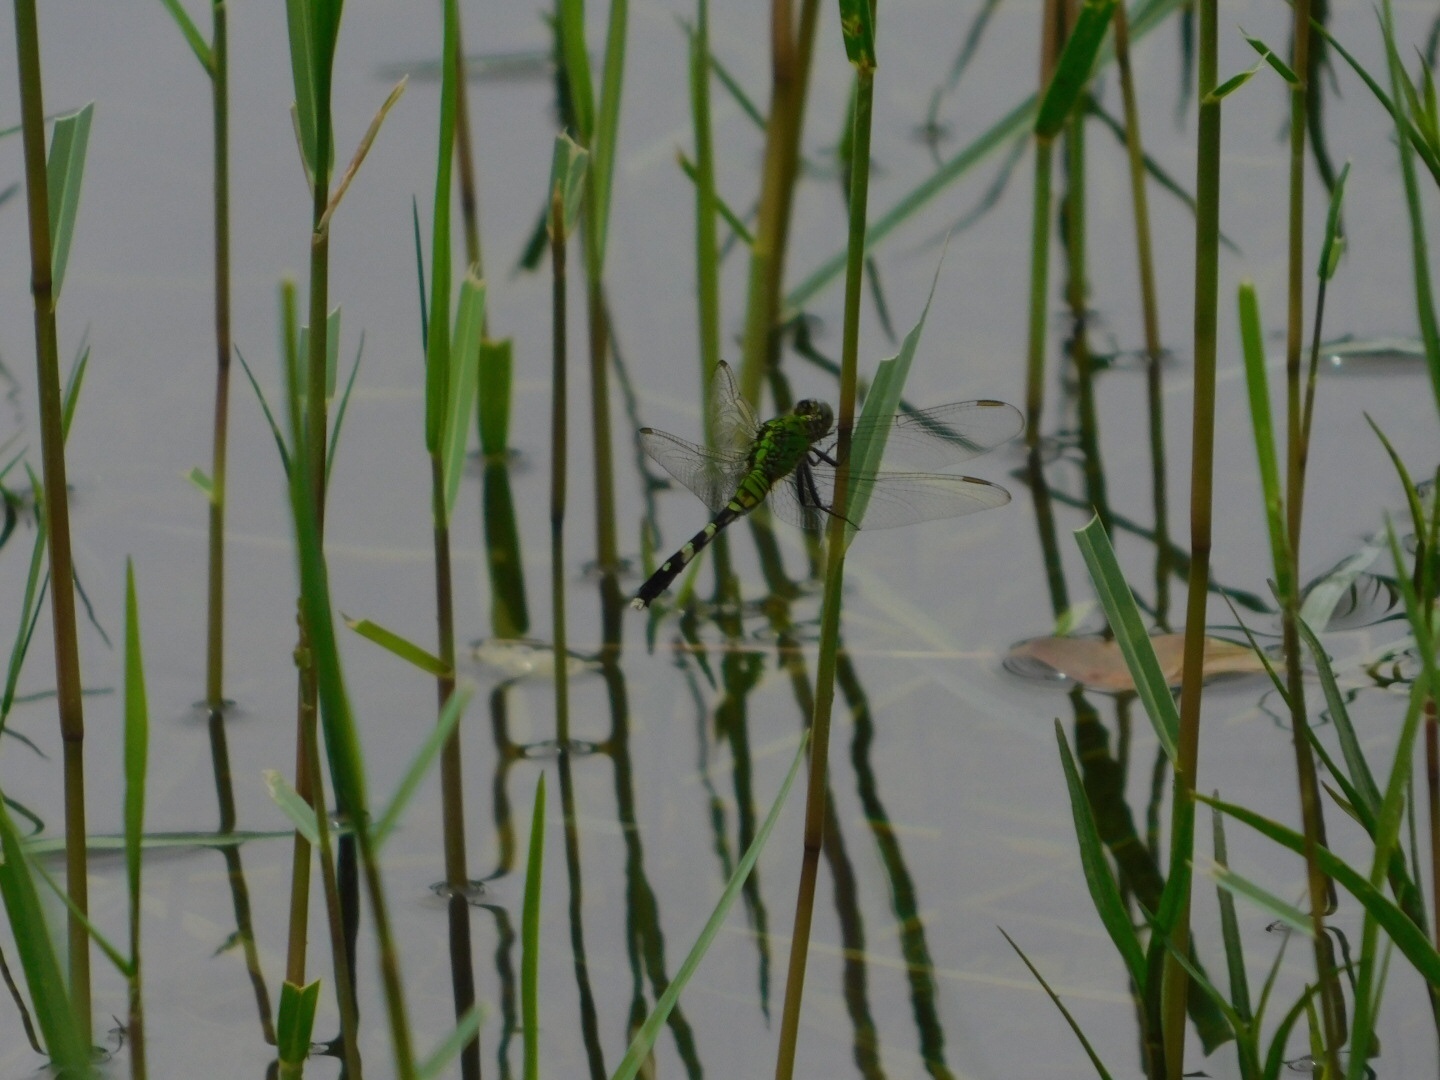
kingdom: Animalia
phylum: Arthropoda
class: Insecta
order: Odonata
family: Libellulidae
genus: Erythemis
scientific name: Erythemis simplicicollis
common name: Eastern pondhawk
